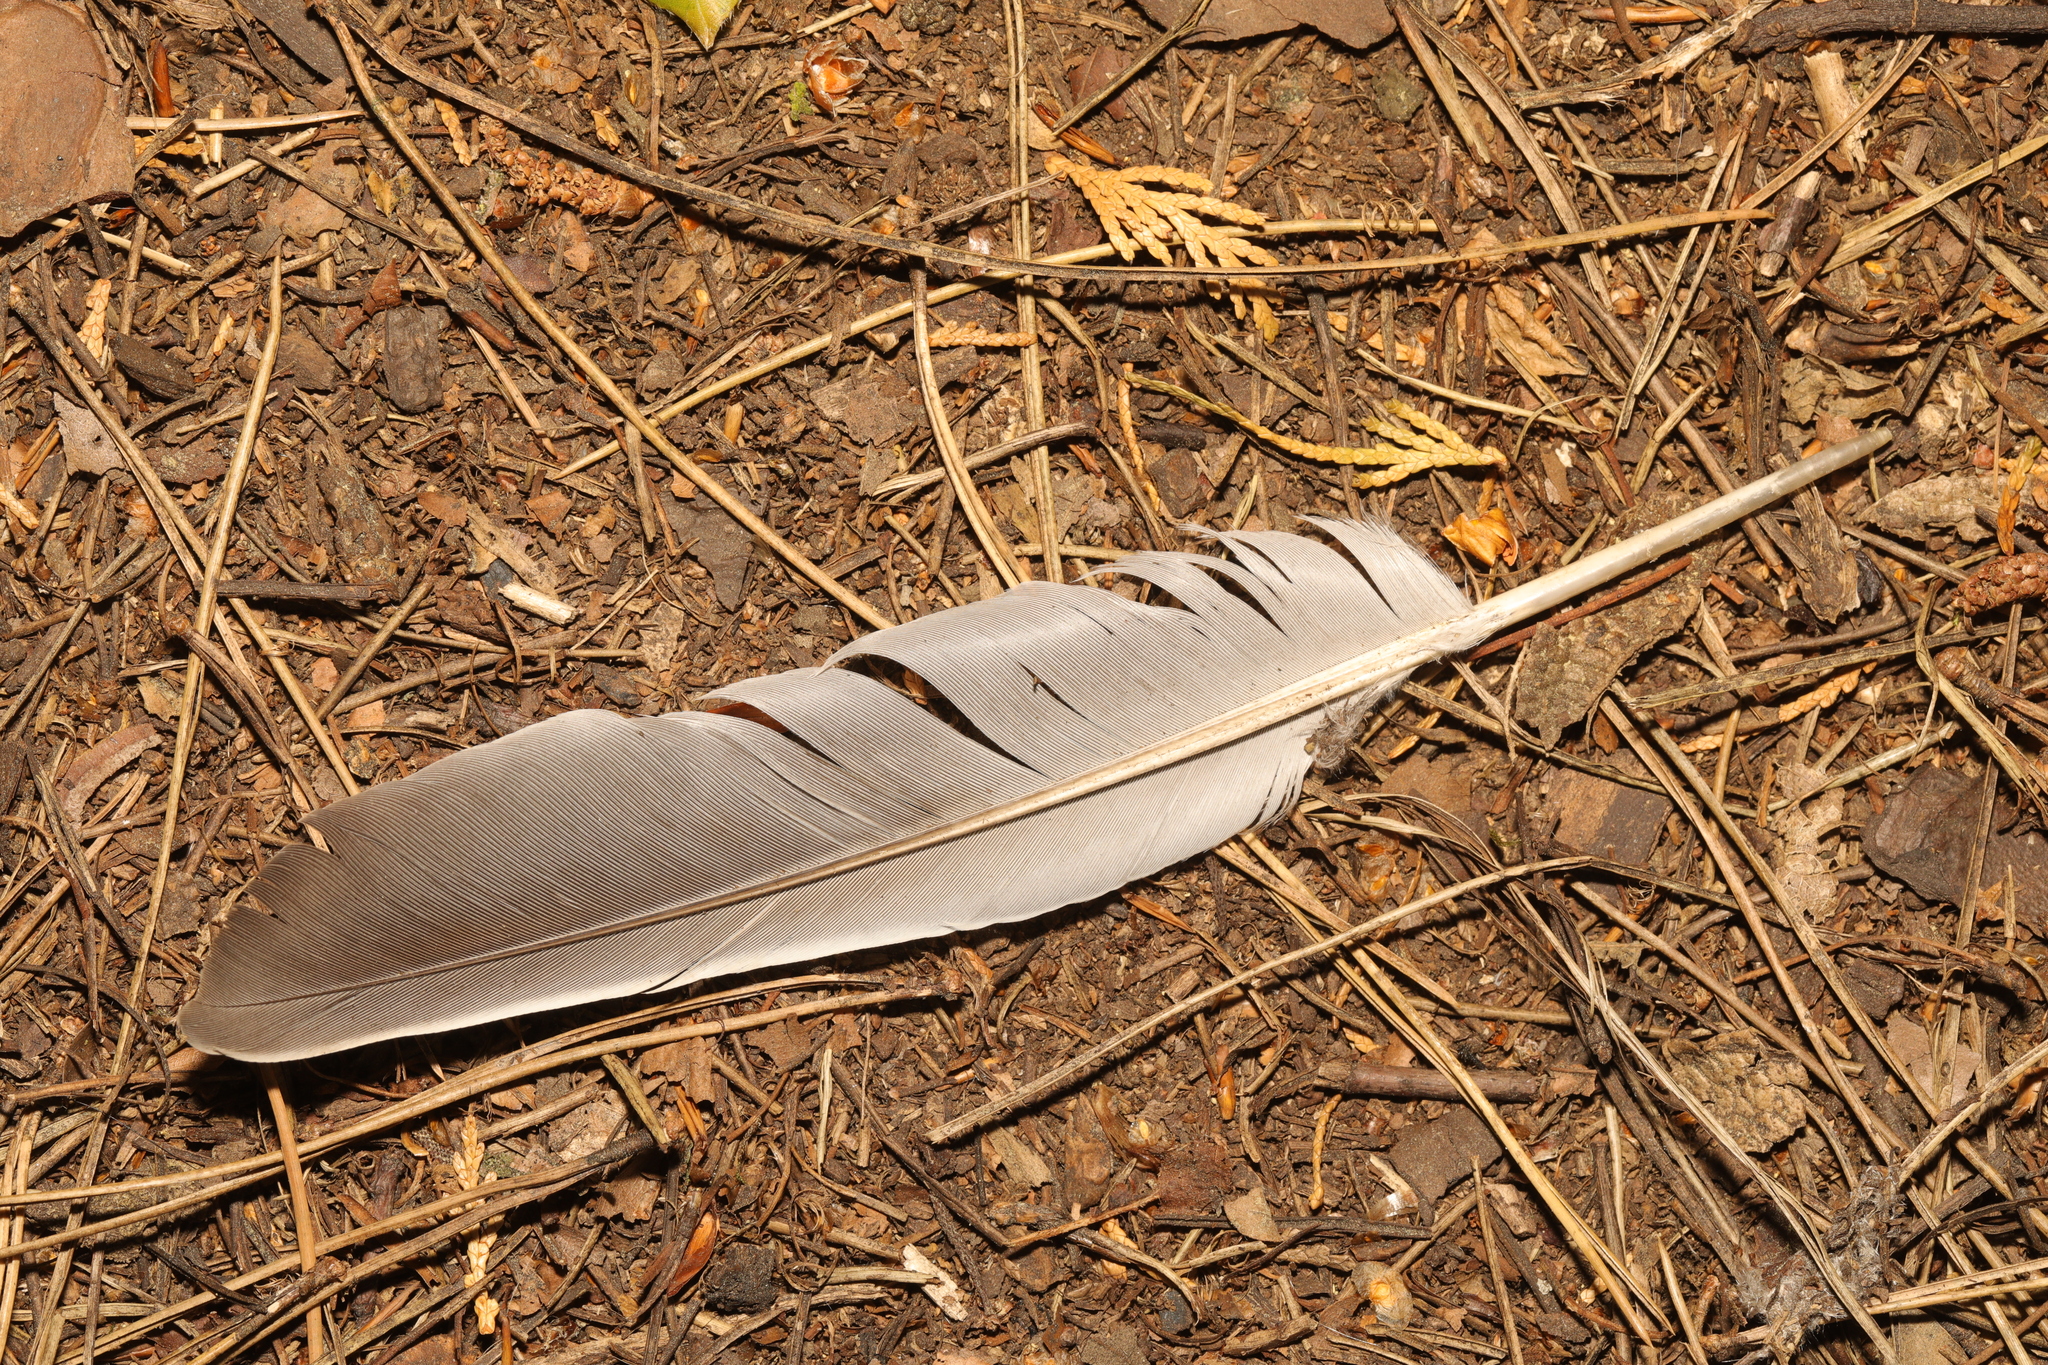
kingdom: Animalia
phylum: Chordata
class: Aves
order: Columbiformes
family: Columbidae
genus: Columba
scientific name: Columba palumbus
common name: Common wood pigeon
